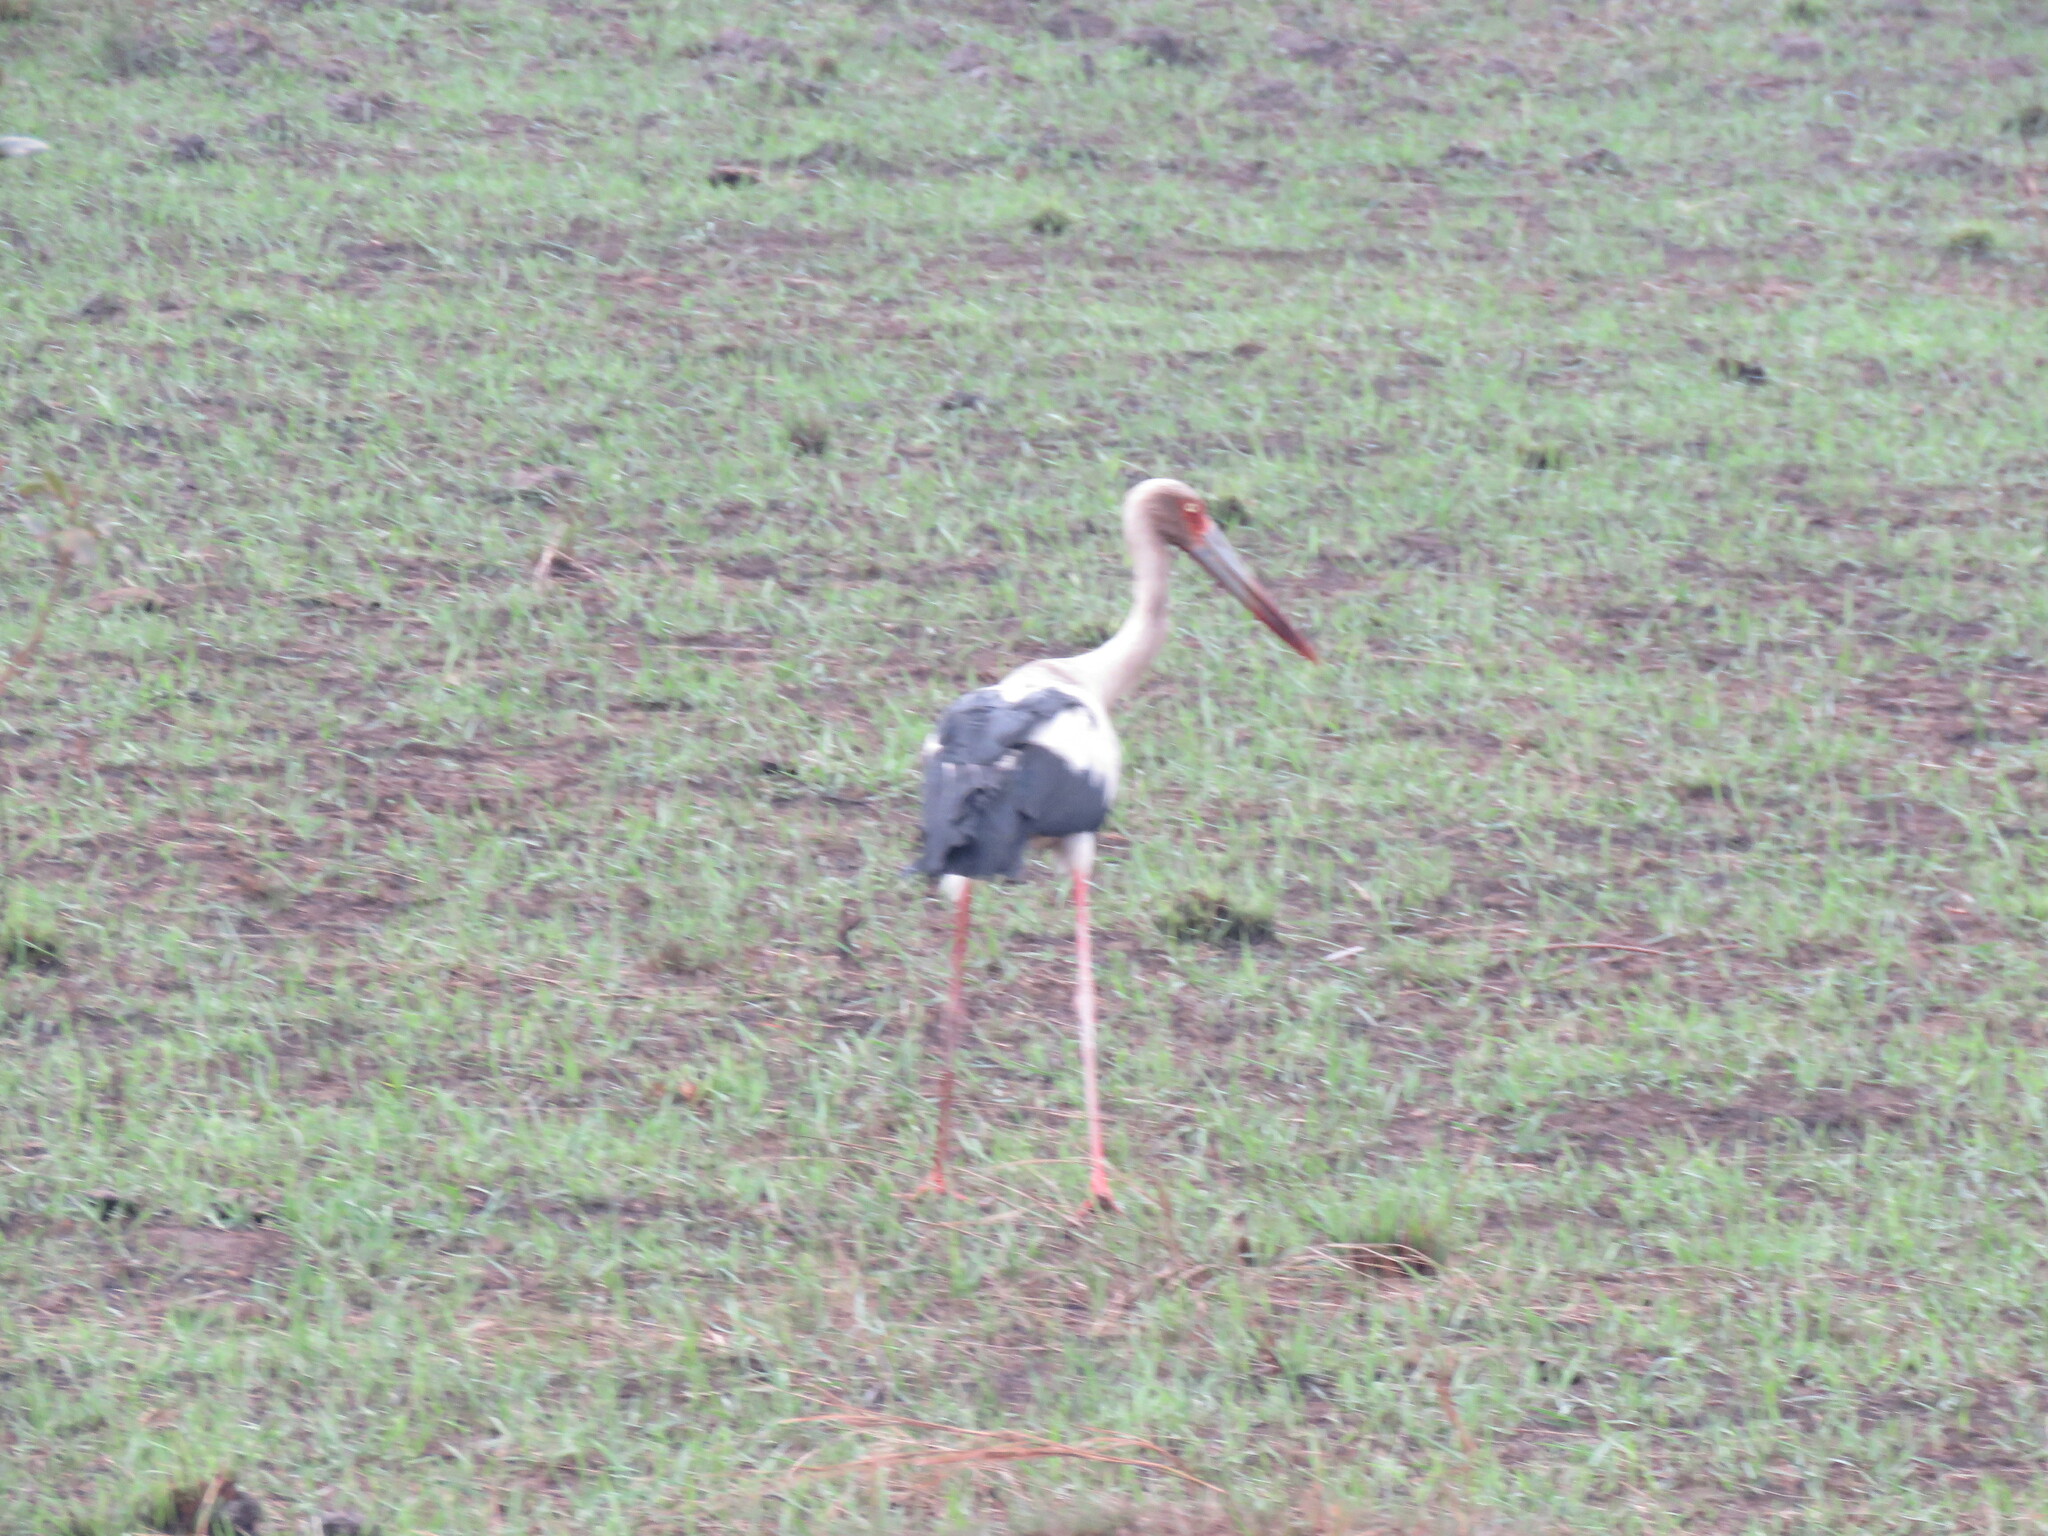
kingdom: Animalia
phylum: Chordata
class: Aves
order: Ciconiiformes
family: Ciconiidae
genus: Ciconia
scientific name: Ciconia maguari
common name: Maguari stork
